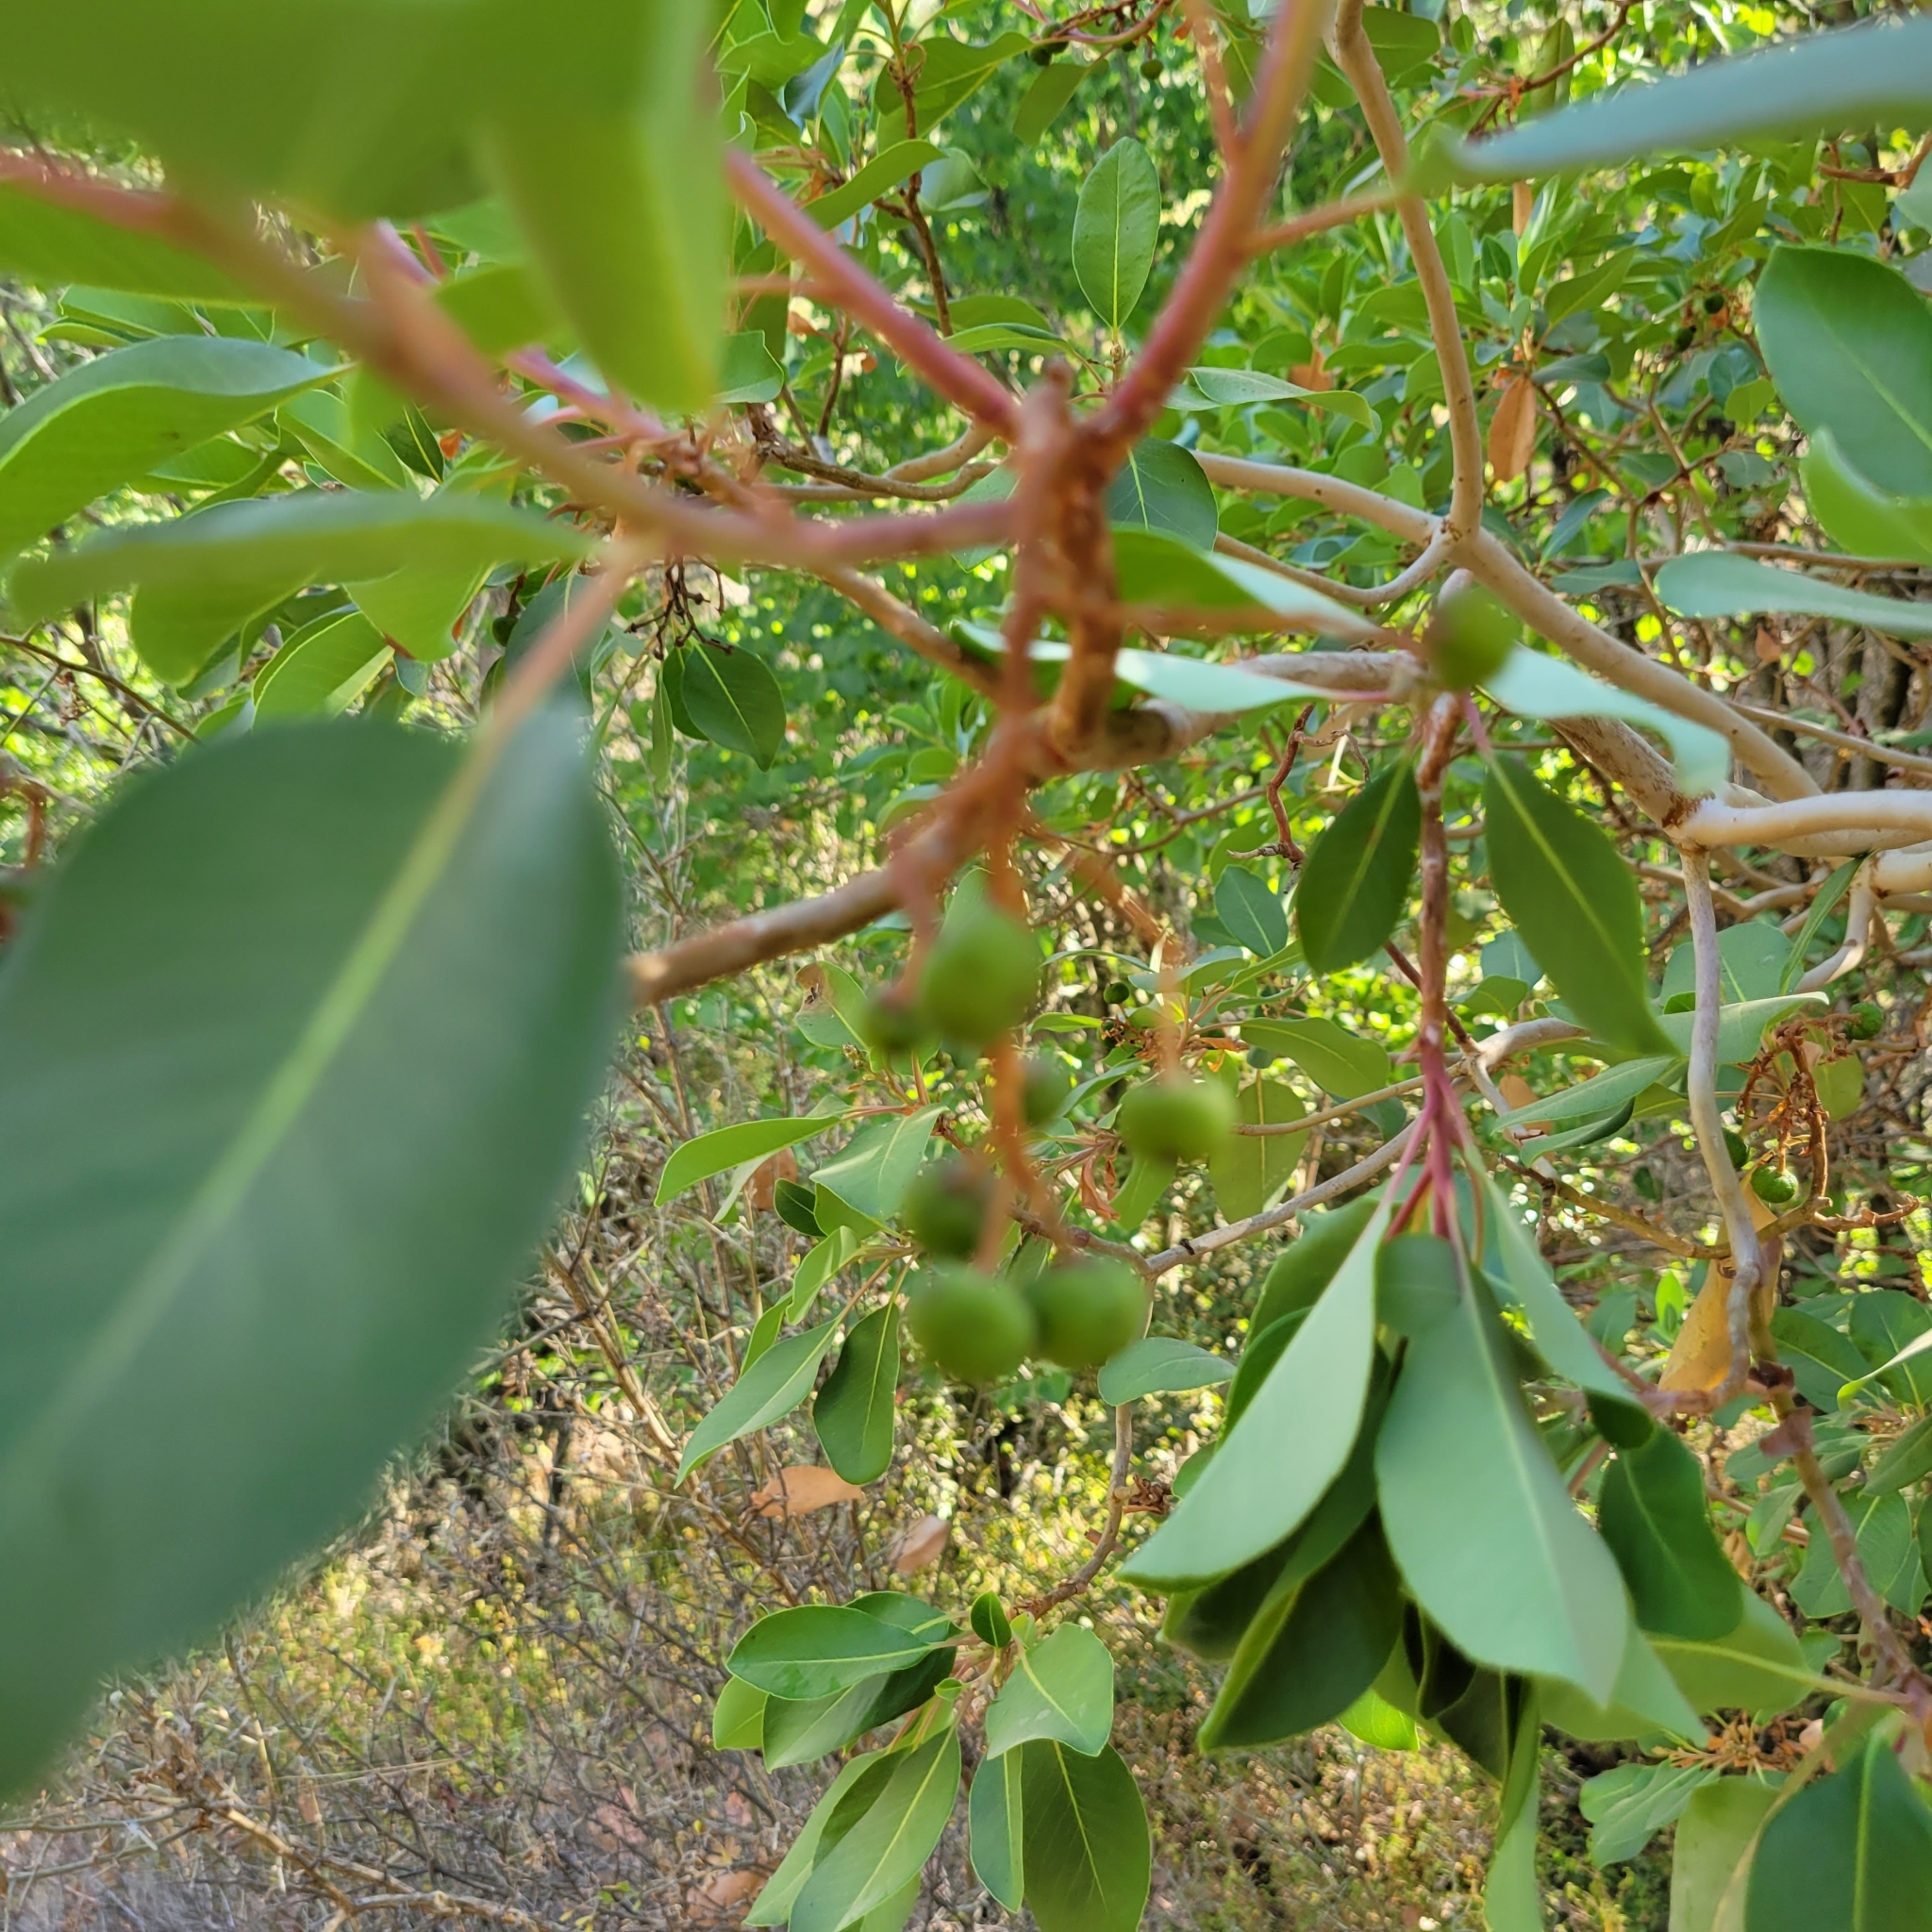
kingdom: Plantae
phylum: Tracheophyta
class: Magnoliopsida
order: Ericales
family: Ericaceae
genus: Arbutus
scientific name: Arbutus andrachne
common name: Greek strawberry tree
